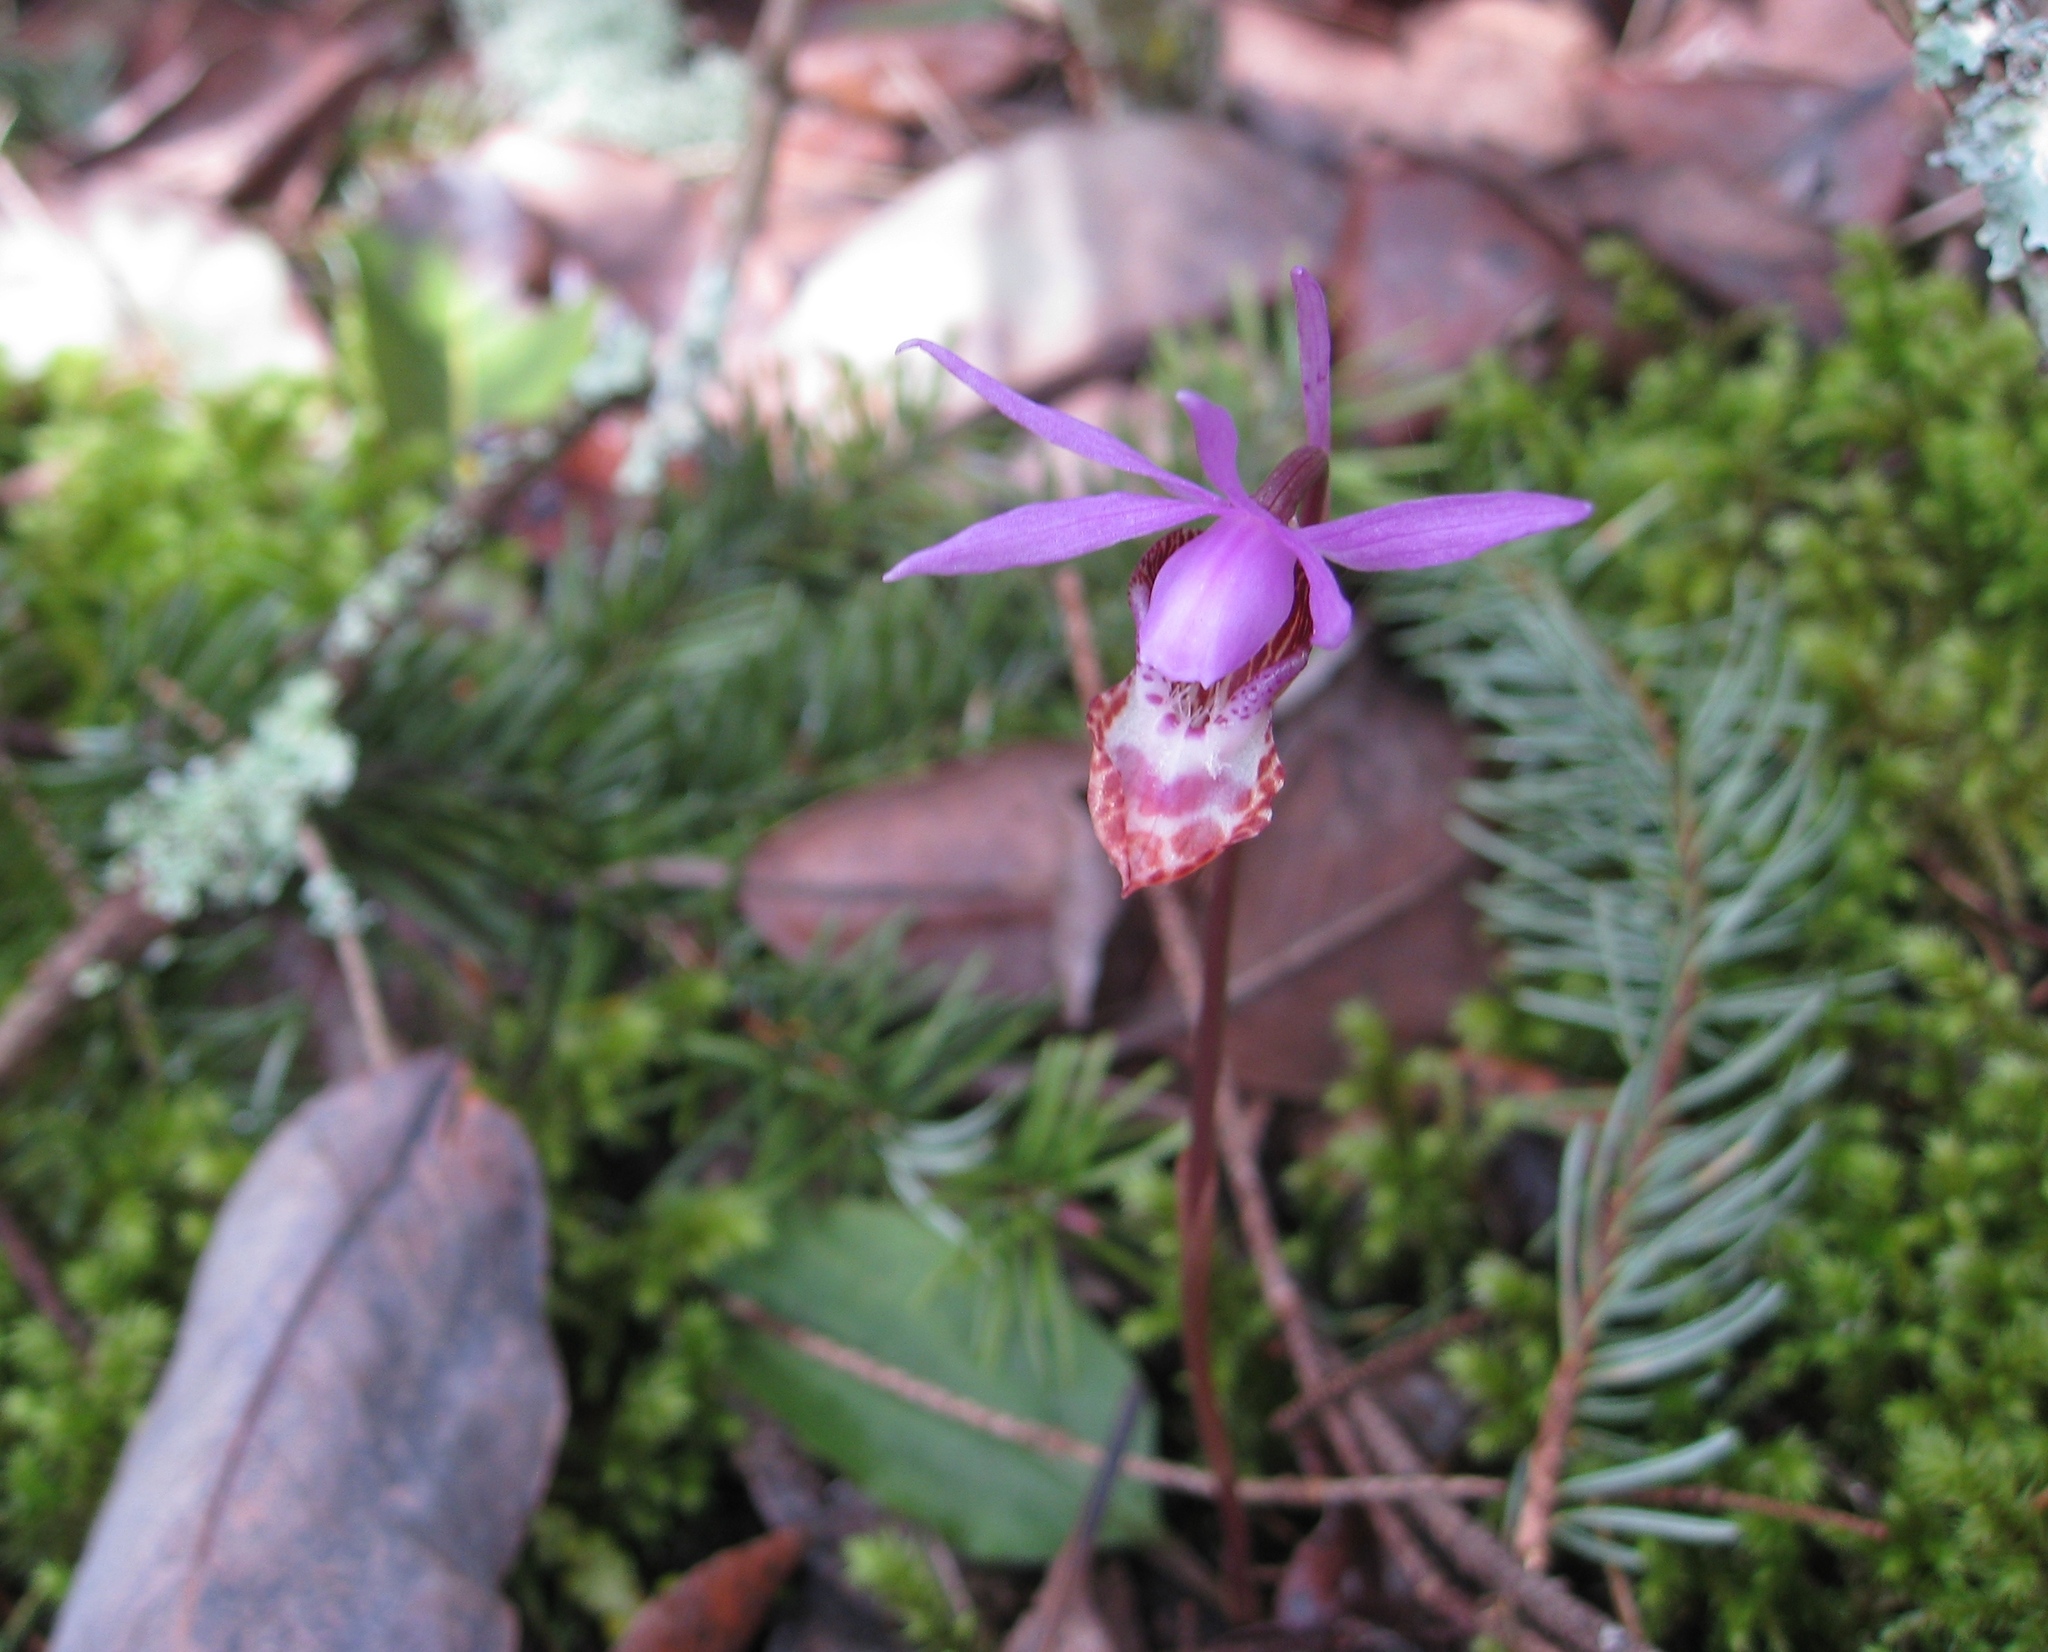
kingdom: Plantae
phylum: Tracheophyta
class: Liliopsida
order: Asparagales
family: Orchidaceae
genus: Calypso
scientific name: Calypso bulbosa
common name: Calypso
